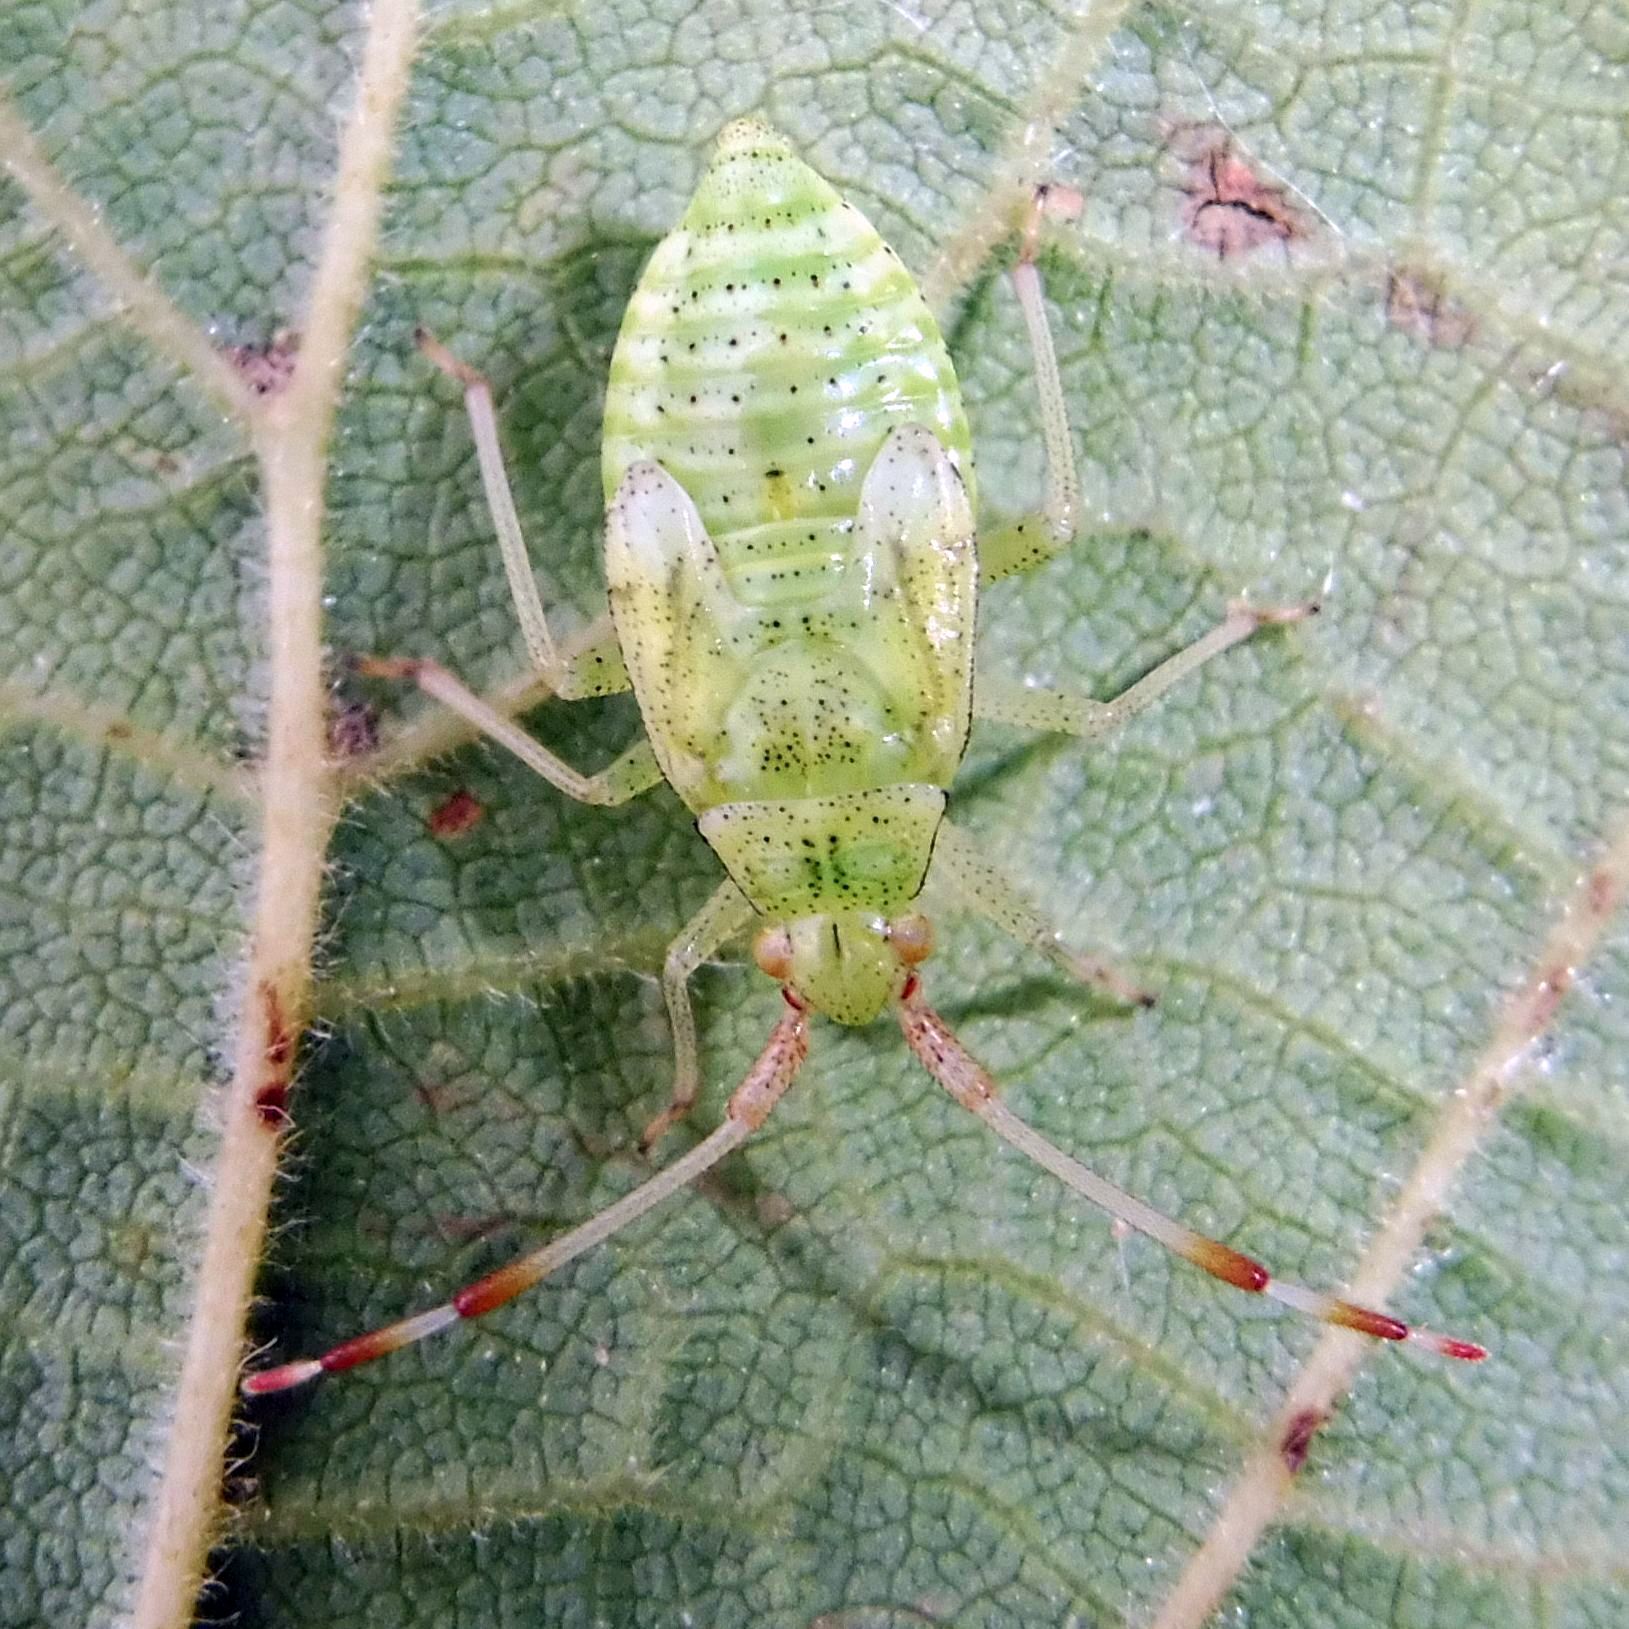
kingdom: Animalia
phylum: Arthropoda
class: Insecta
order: Hemiptera
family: Miridae
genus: Pantilius
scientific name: Pantilius tunicatus
